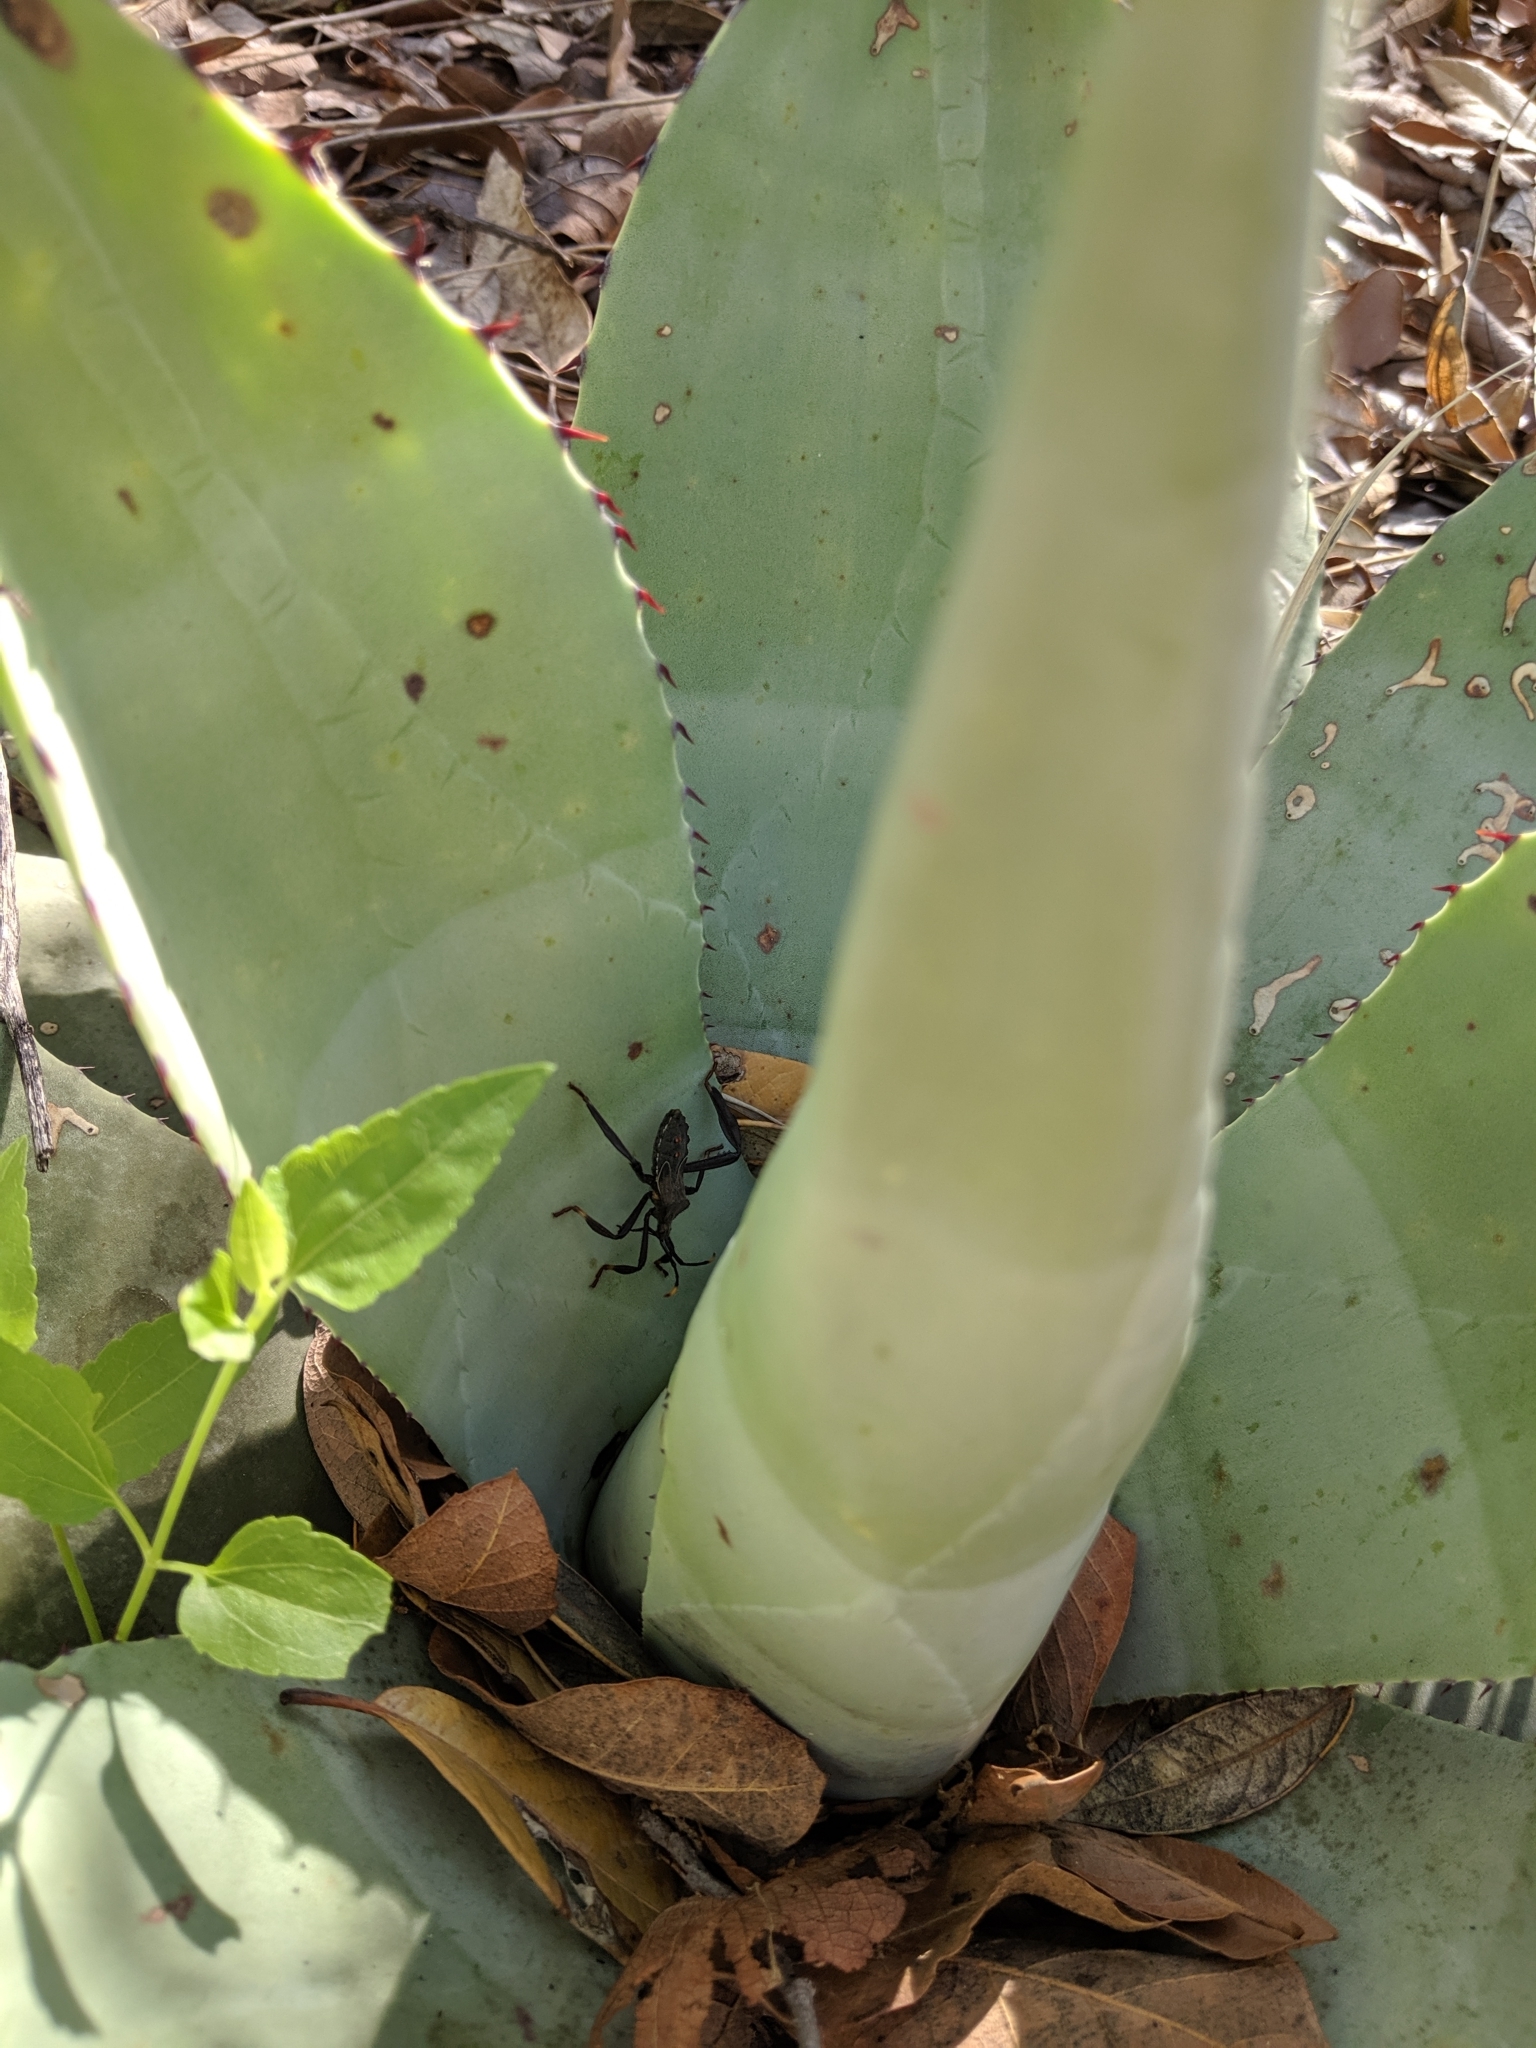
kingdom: Animalia
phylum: Arthropoda
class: Insecta
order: Hemiptera
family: Coreidae
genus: Acanthocephala
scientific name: Acanthocephala thomasi
